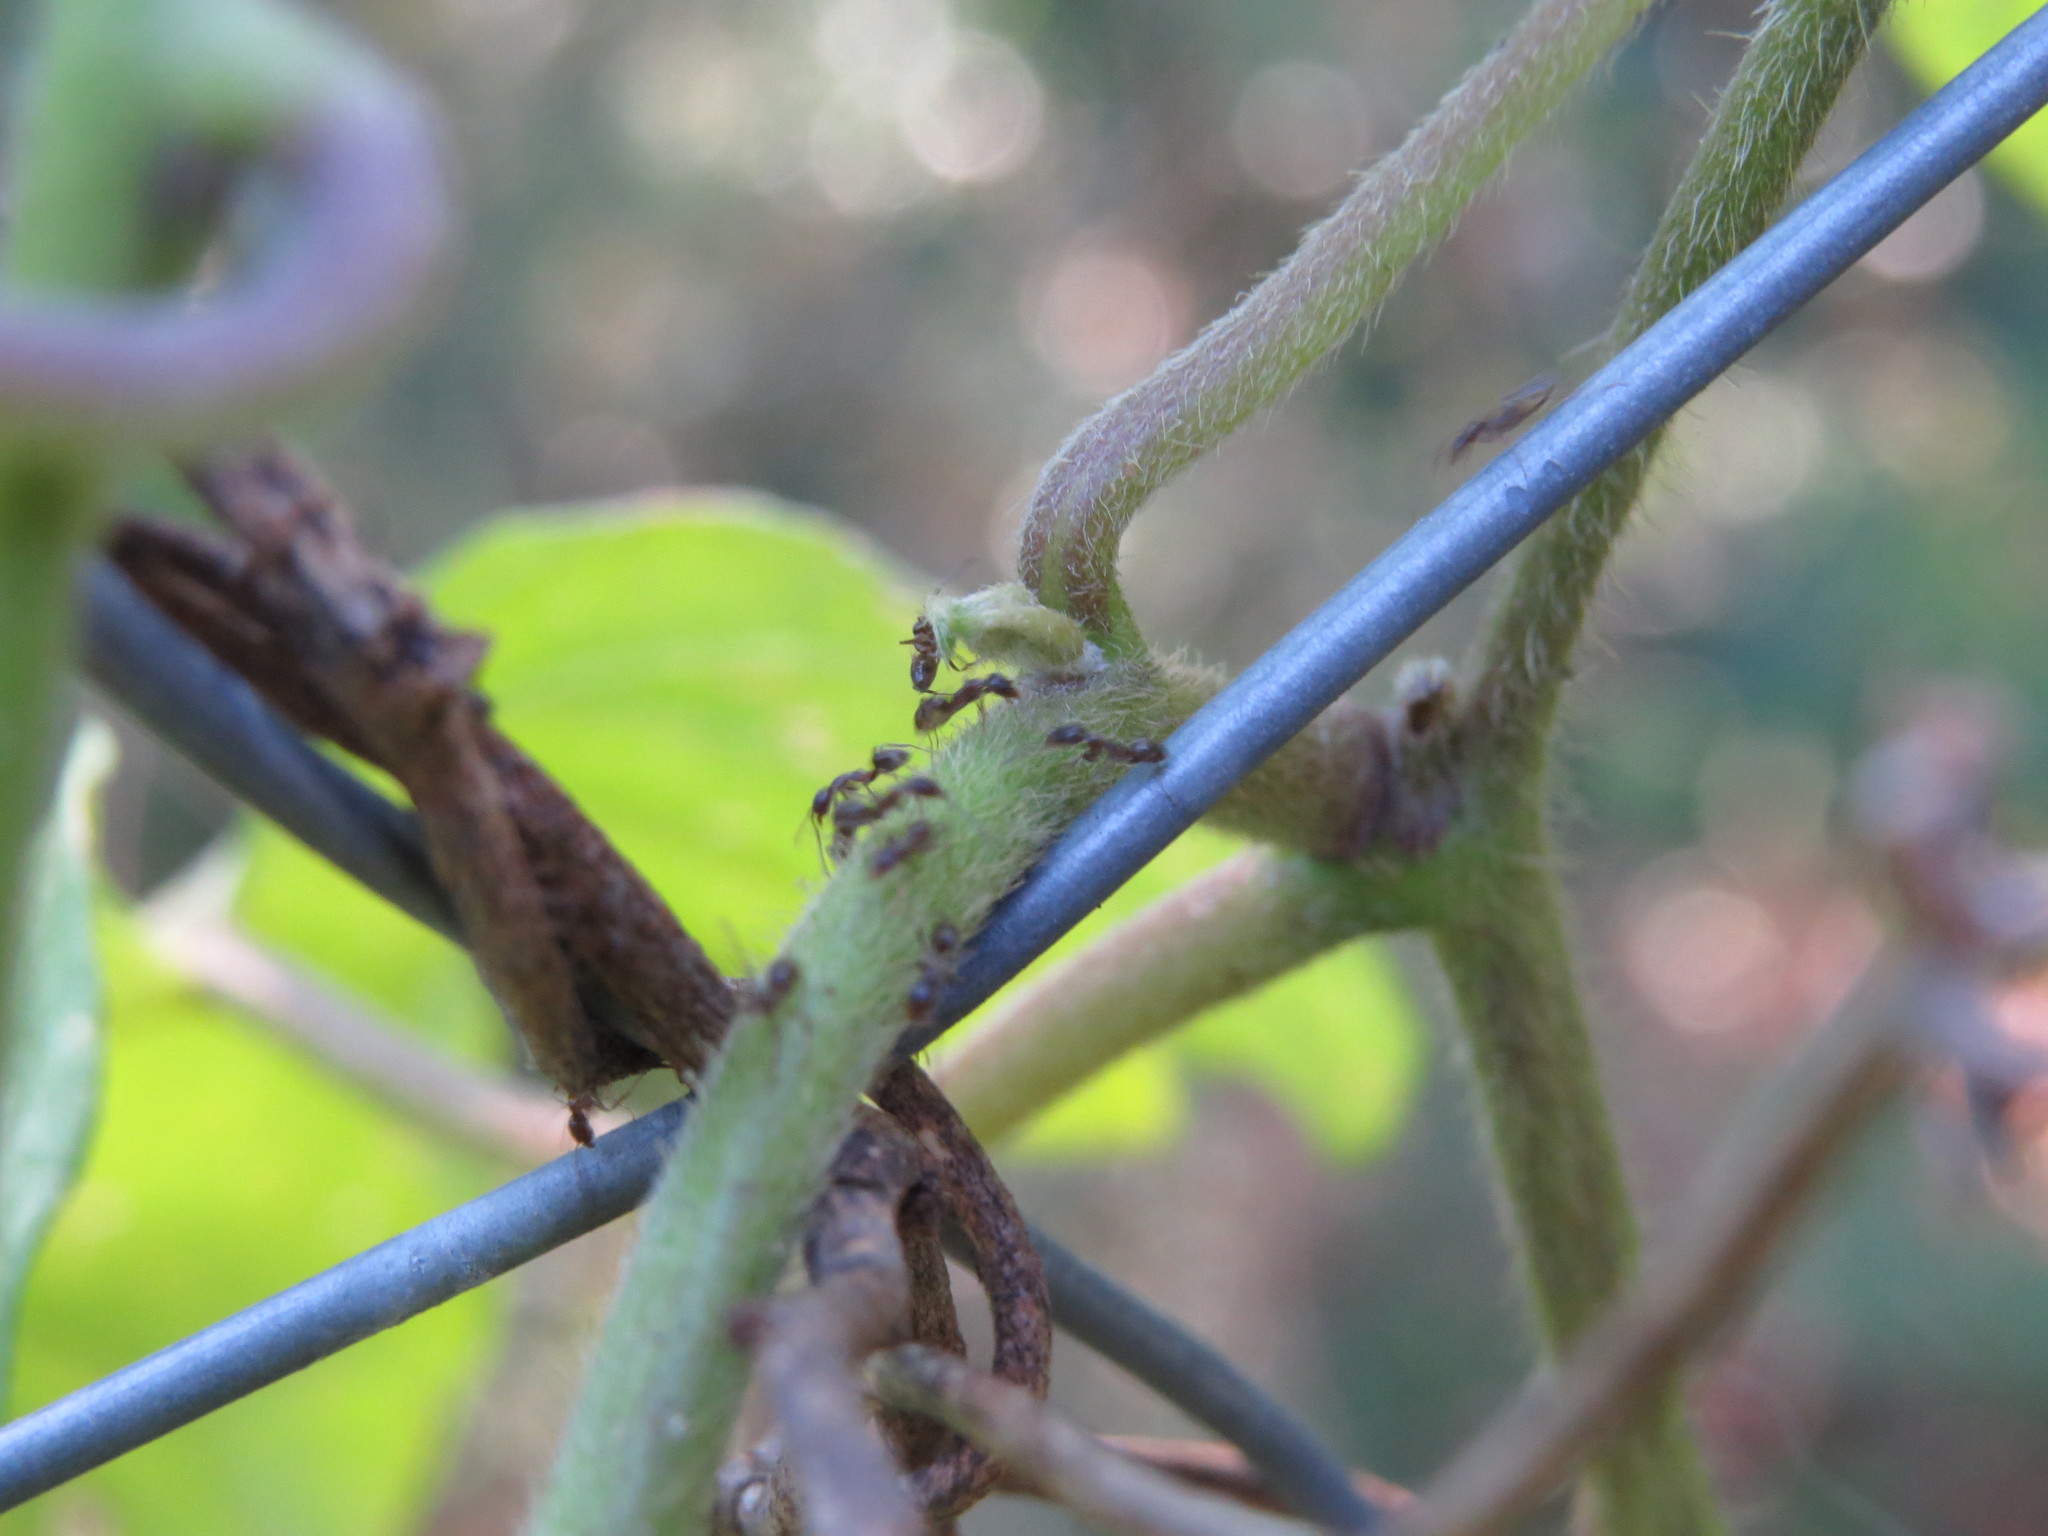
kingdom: Animalia
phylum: Arthropoda
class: Insecta
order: Hymenoptera
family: Formicidae
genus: Linepithema
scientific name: Linepithema humile
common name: Argentine ant
